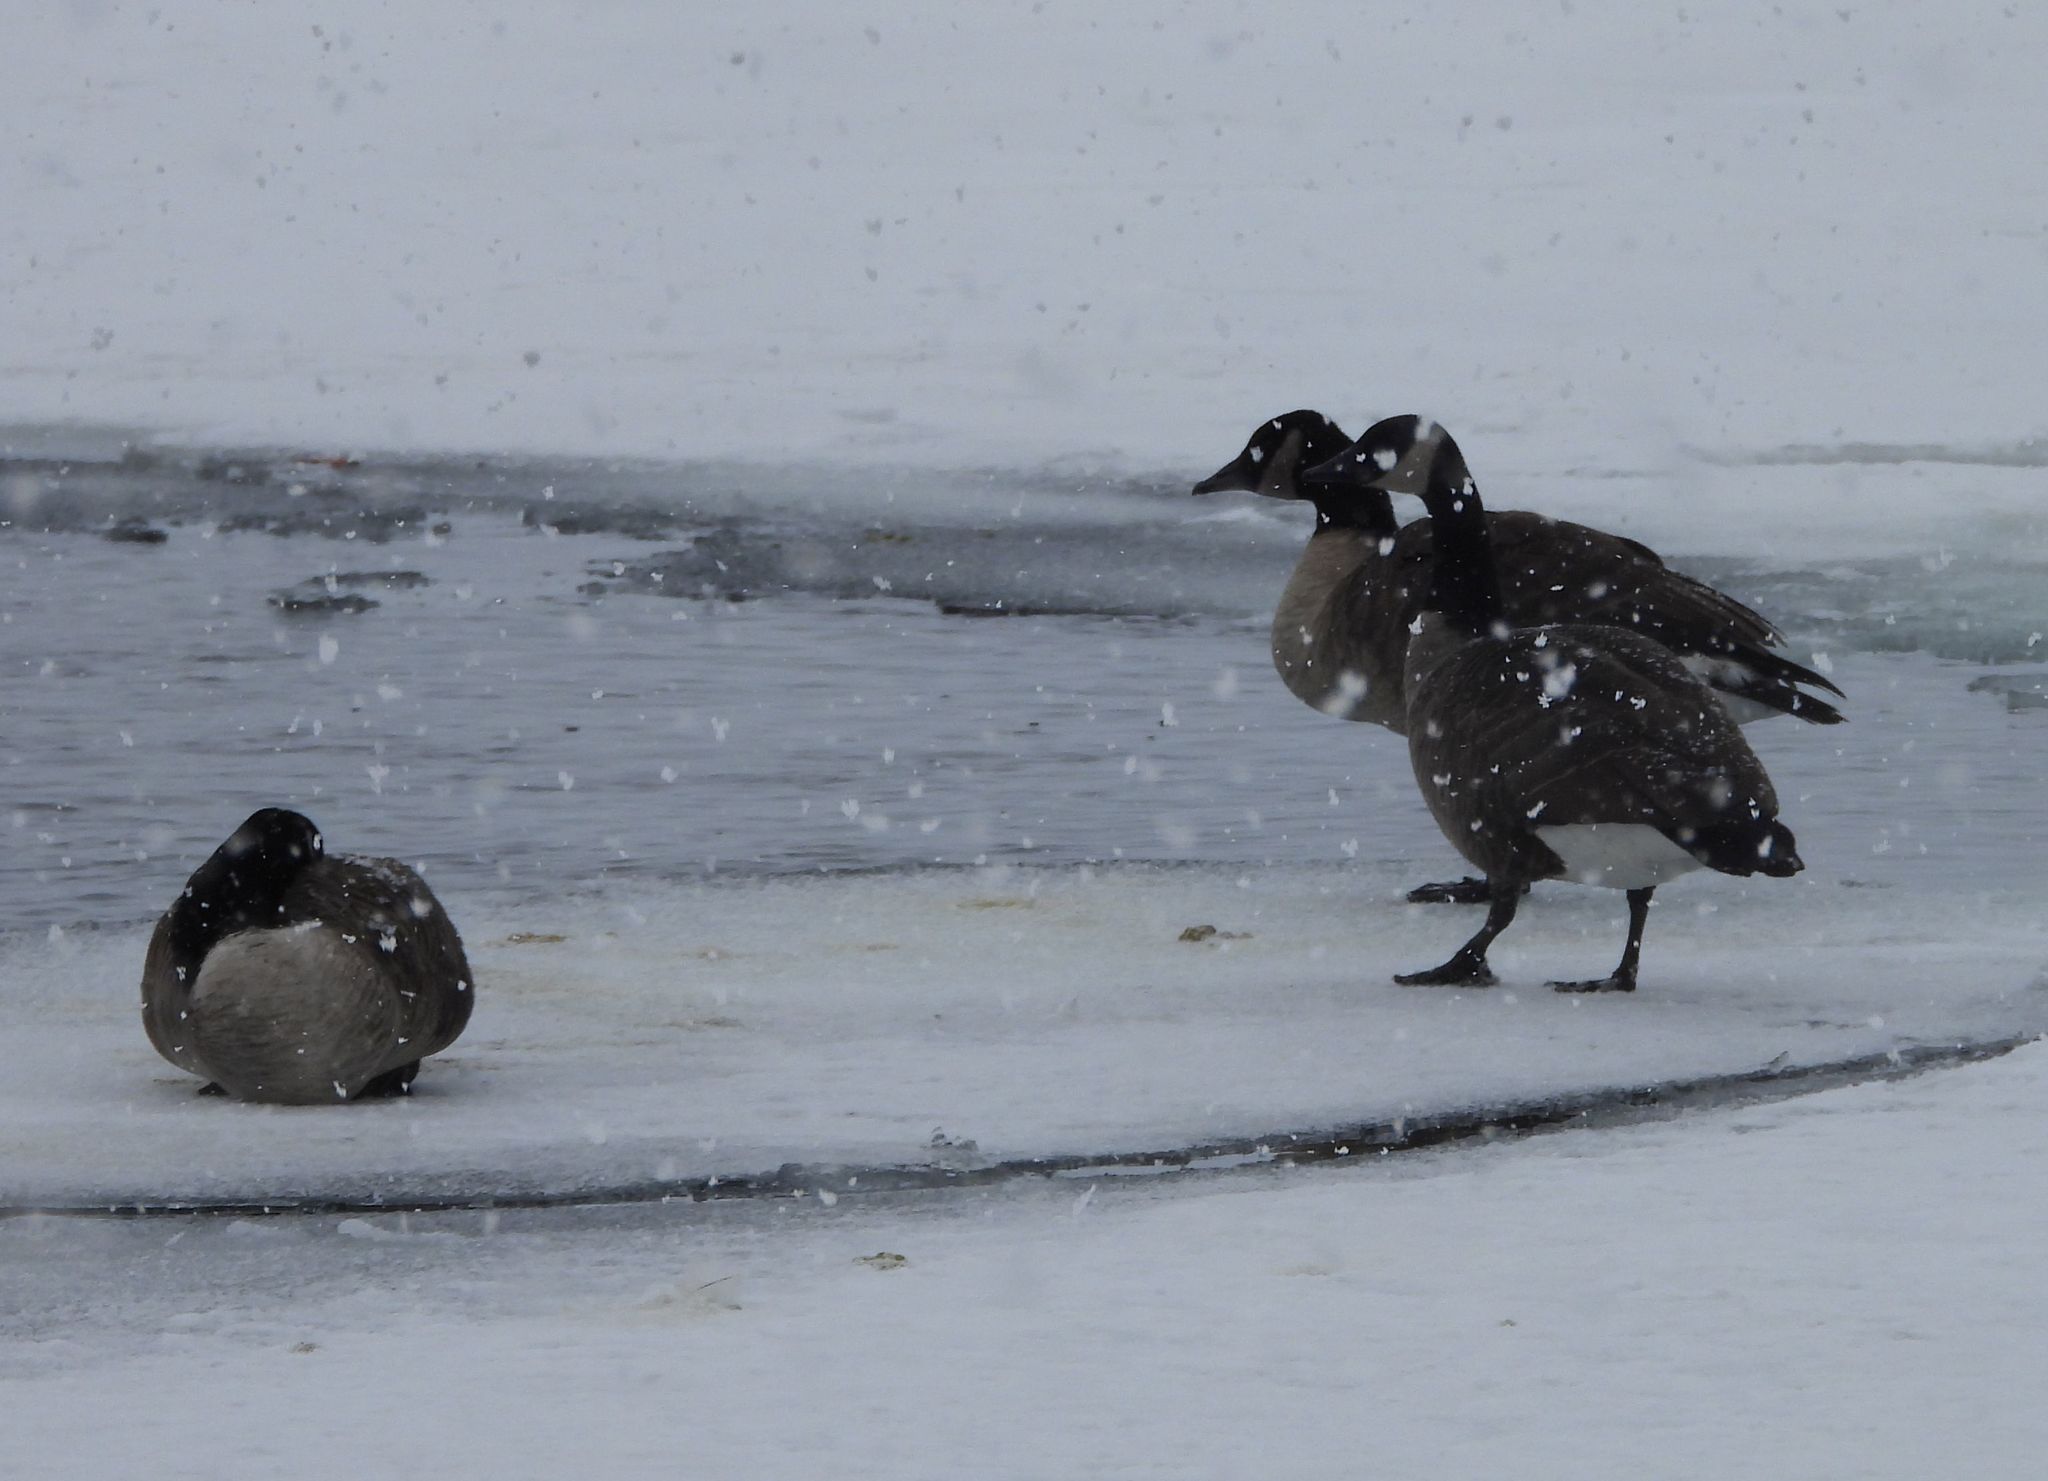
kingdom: Animalia
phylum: Chordata
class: Aves
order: Anseriformes
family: Anatidae
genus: Branta
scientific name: Branta canadensis
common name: Canada goose
